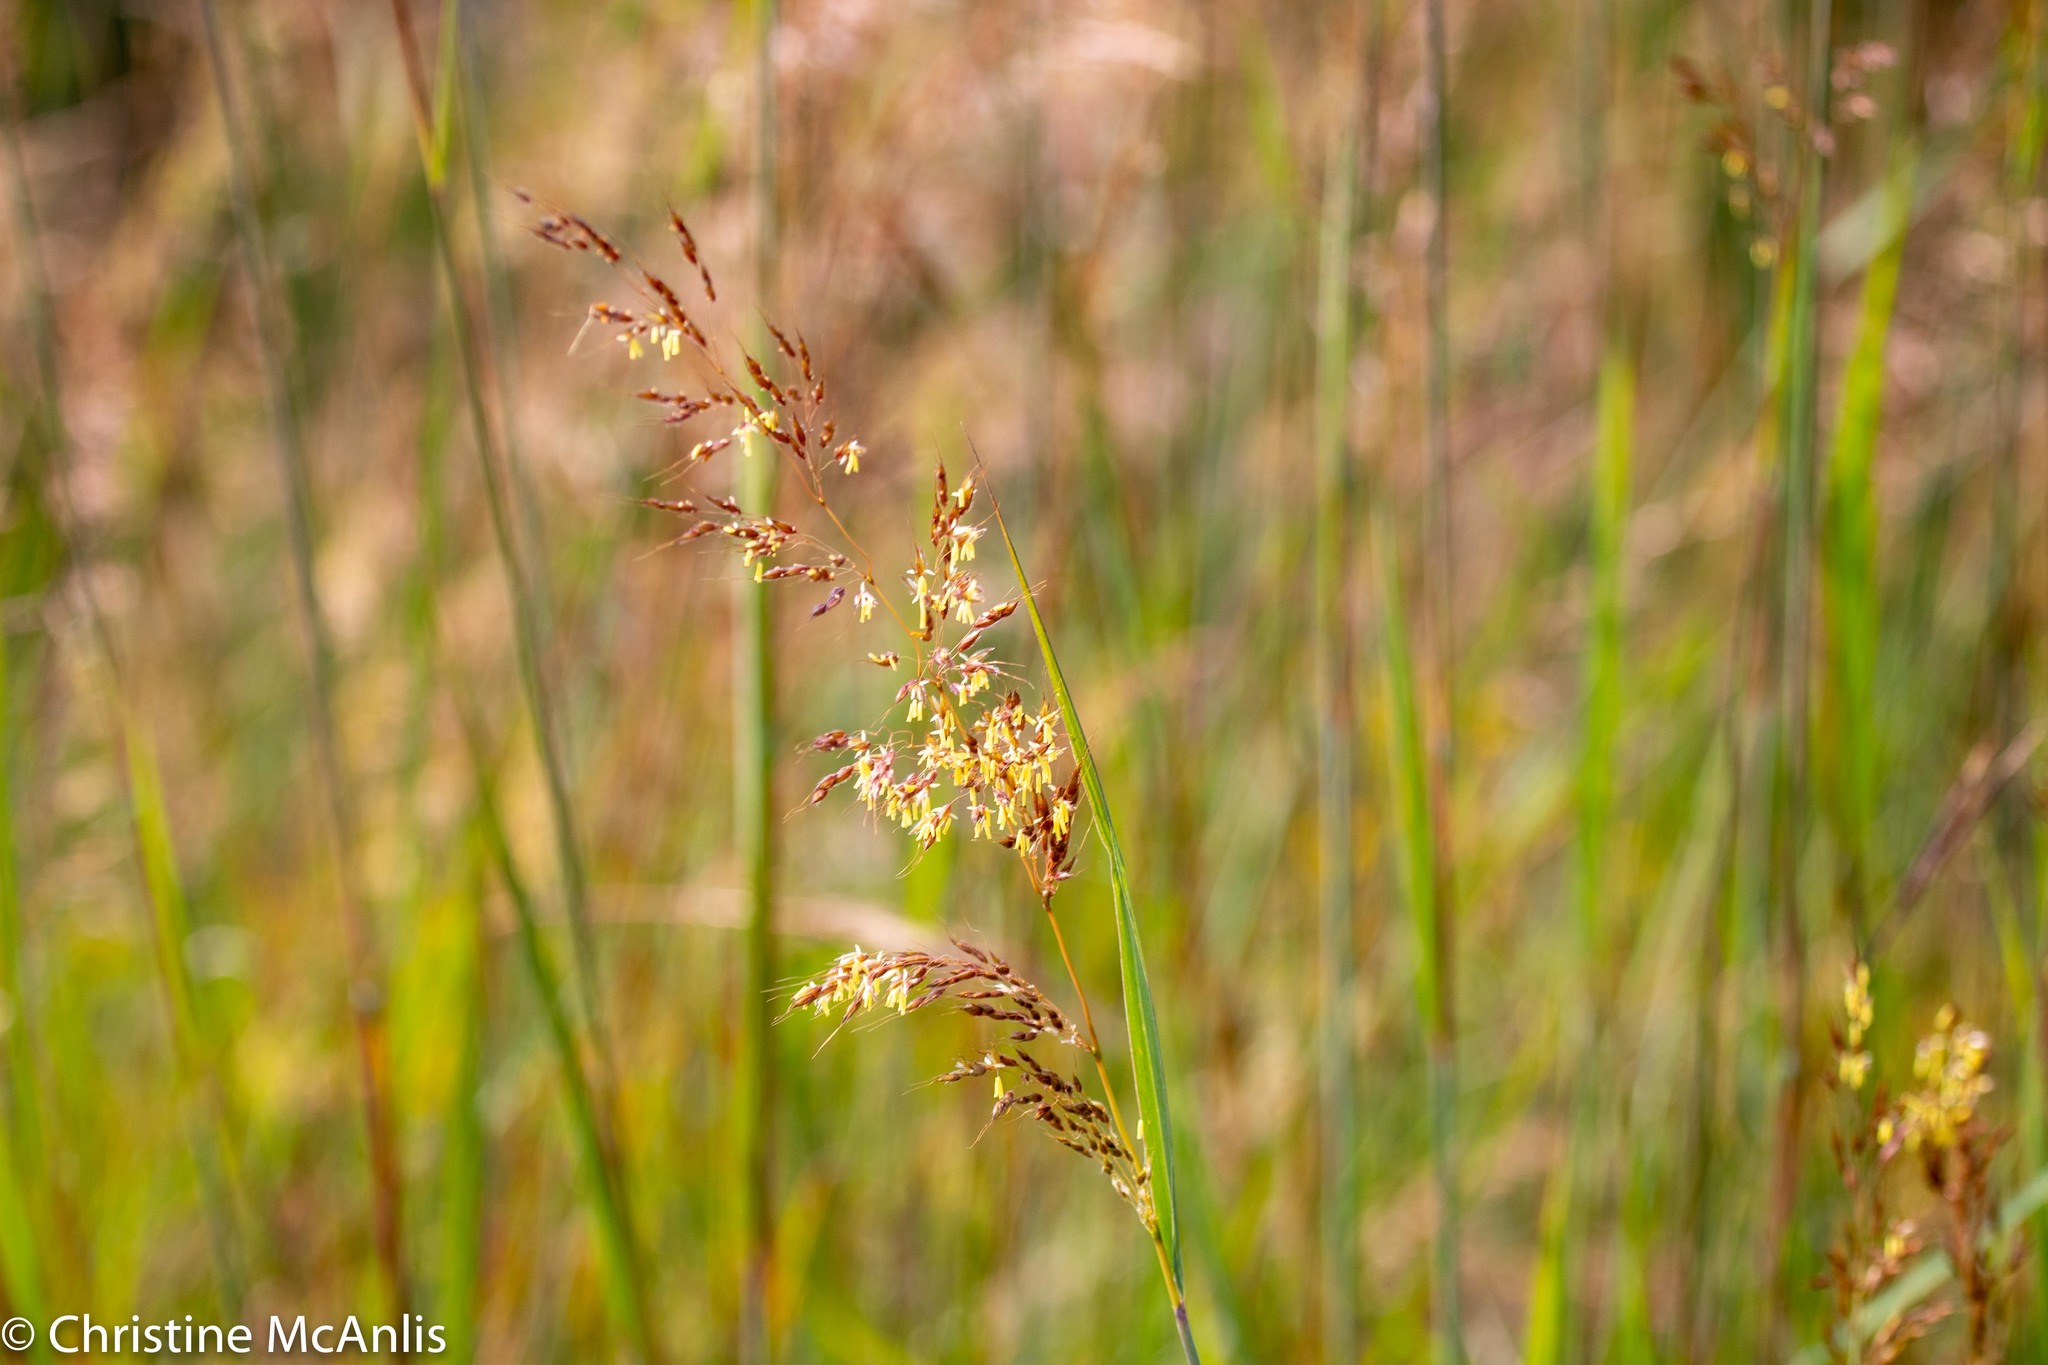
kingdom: Plantae
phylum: Tracheophyta
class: Liliopsida
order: Poales
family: Poaceae
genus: Sorghastrum
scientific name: Sorghastrum nutans
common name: Indian grass
